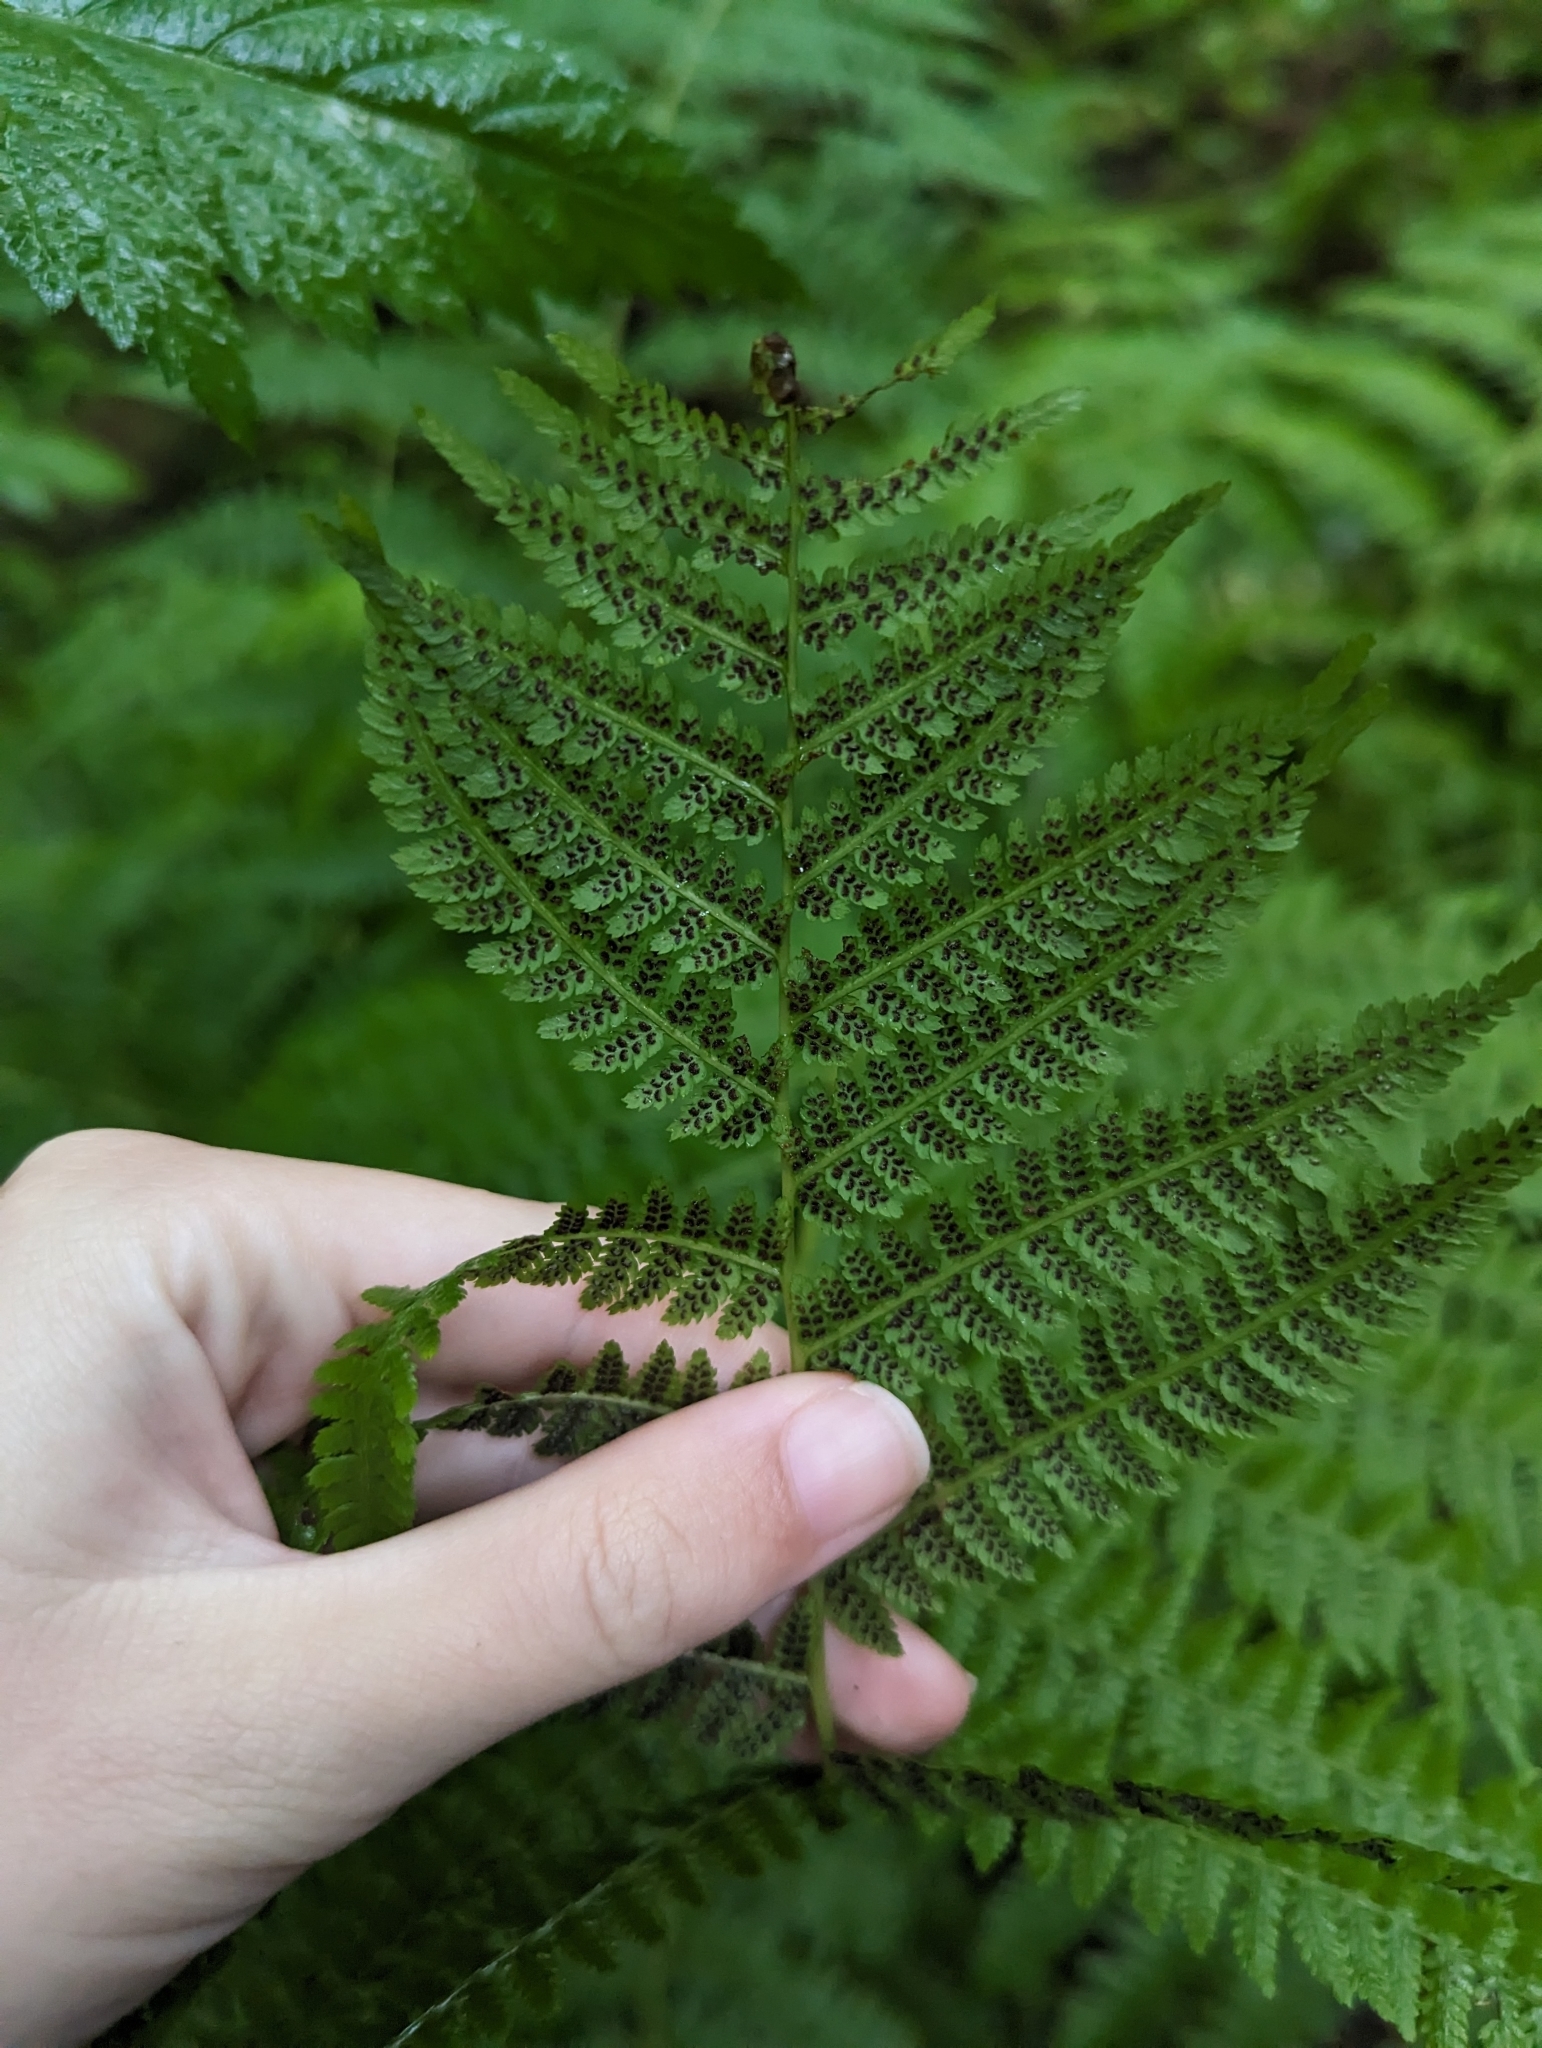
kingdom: Plantae
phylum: Tracheophyta
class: Polypodiopsida
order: Polypodiales
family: Athyriaceae
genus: Athyrium
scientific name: Athyrium filix-femina
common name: Lady fern
